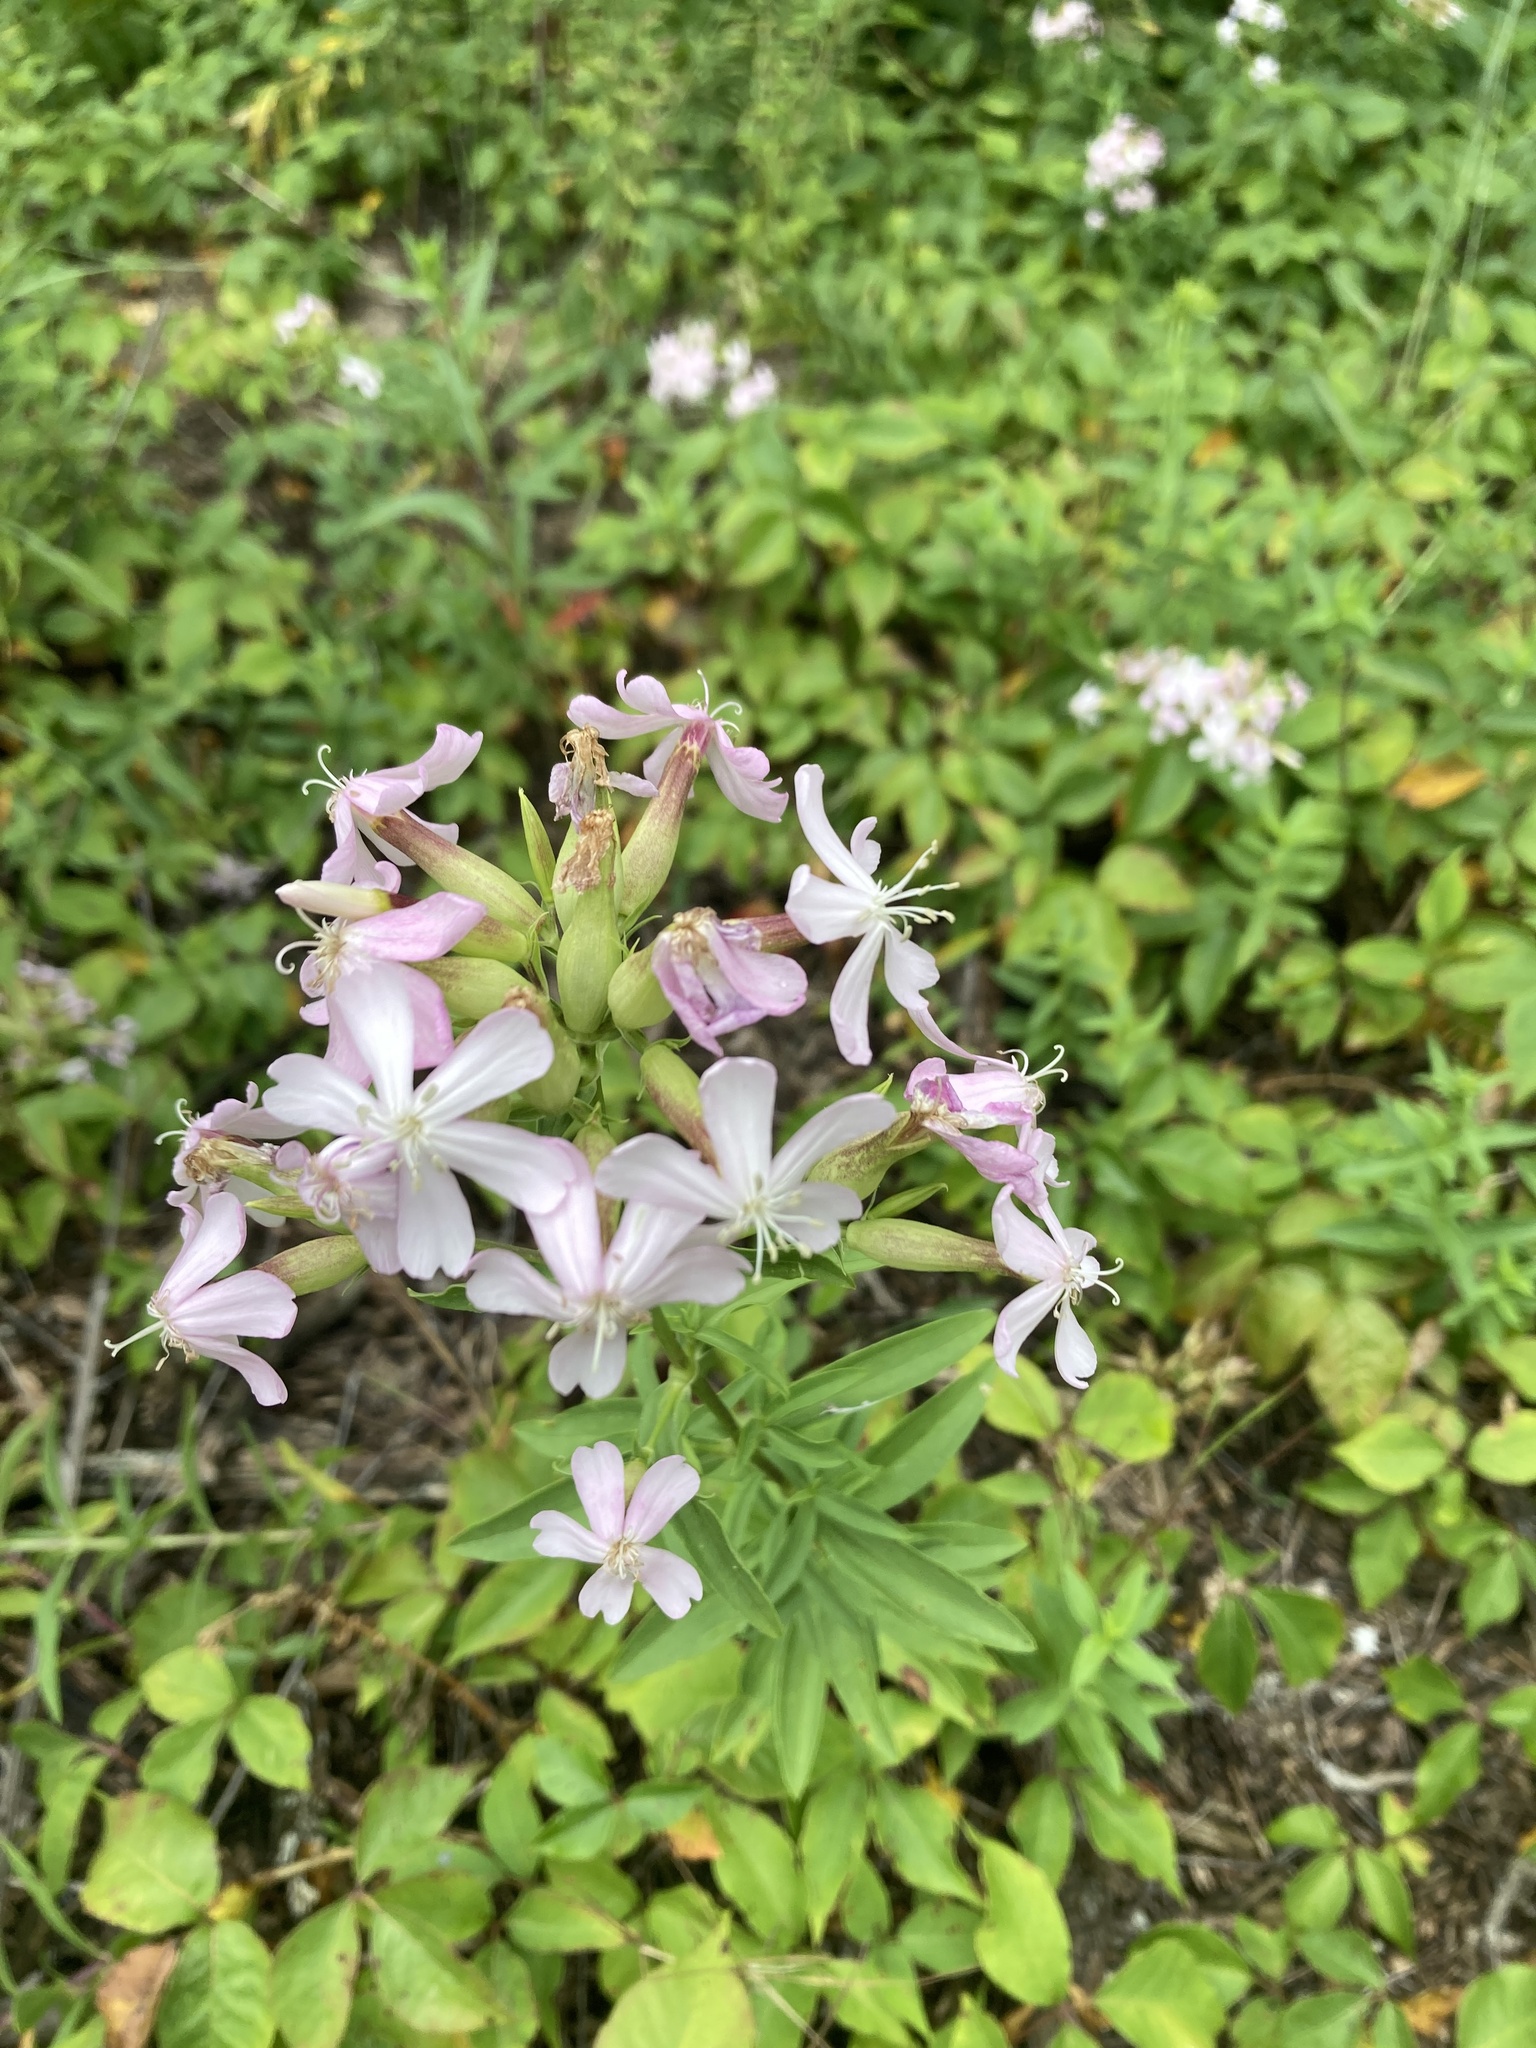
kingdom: Plantae
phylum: Tracheophyta
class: Magnoliopsida
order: Caryophyllales
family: Caryophyllaceae
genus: Saponaria
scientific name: Saponaria officinalis
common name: Soapwort
